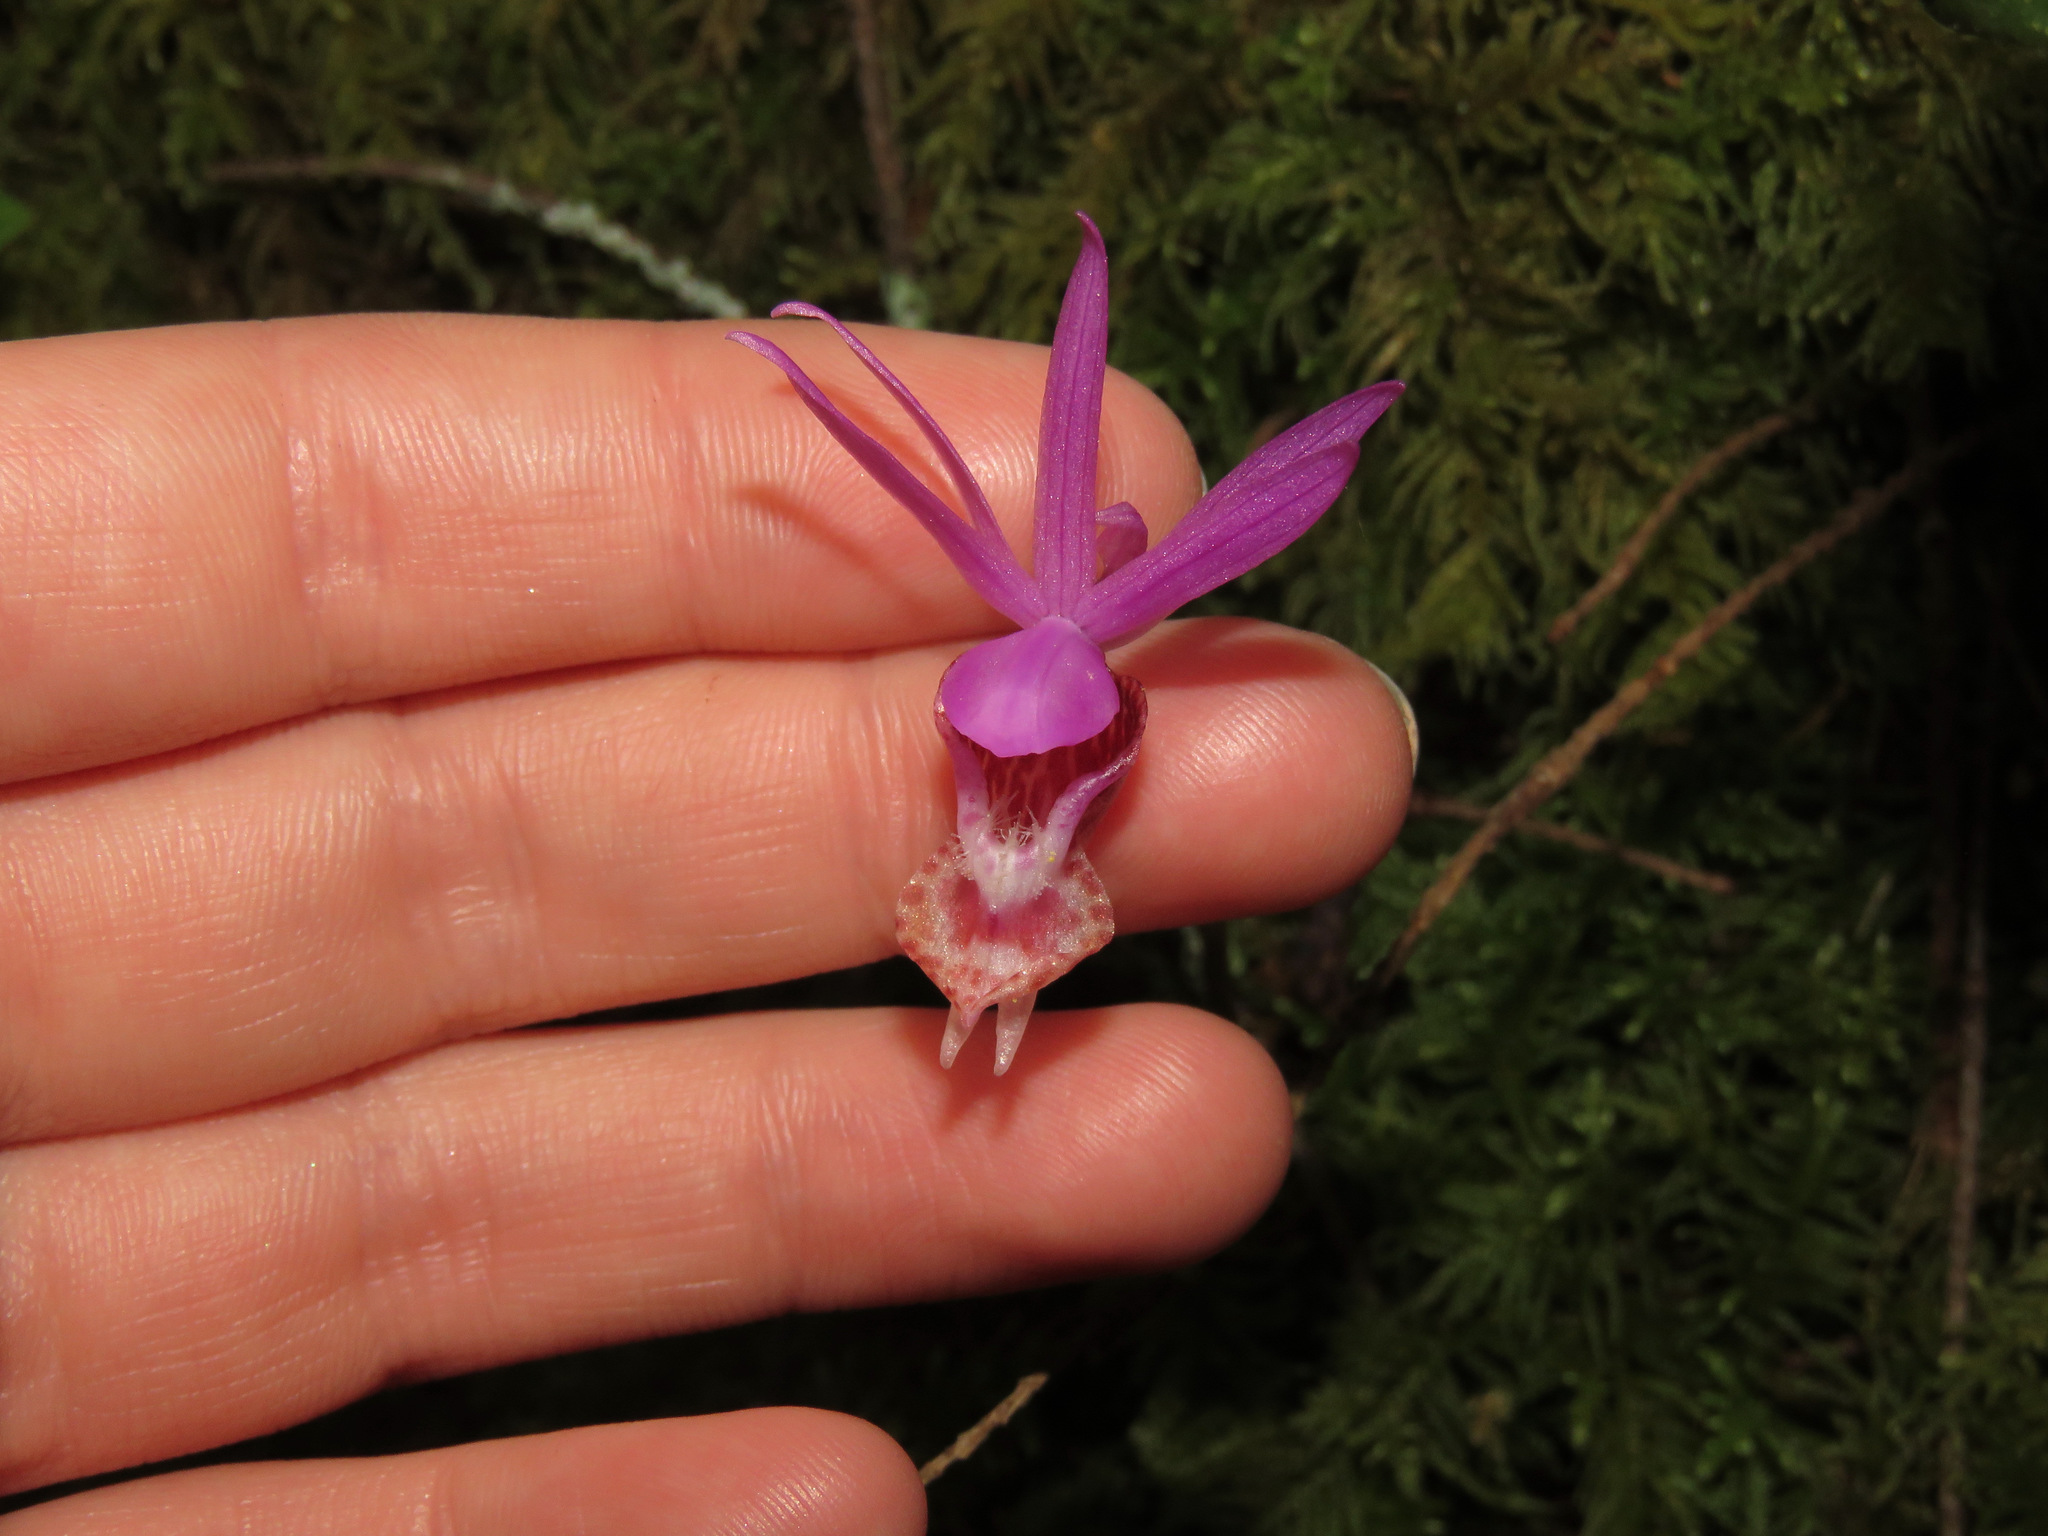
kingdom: Plantae
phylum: Tracheophyta
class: Liliopsida
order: Asparagales
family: Orchidaceae
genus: Calypso
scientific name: Calypso bulbosa
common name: Calypso
